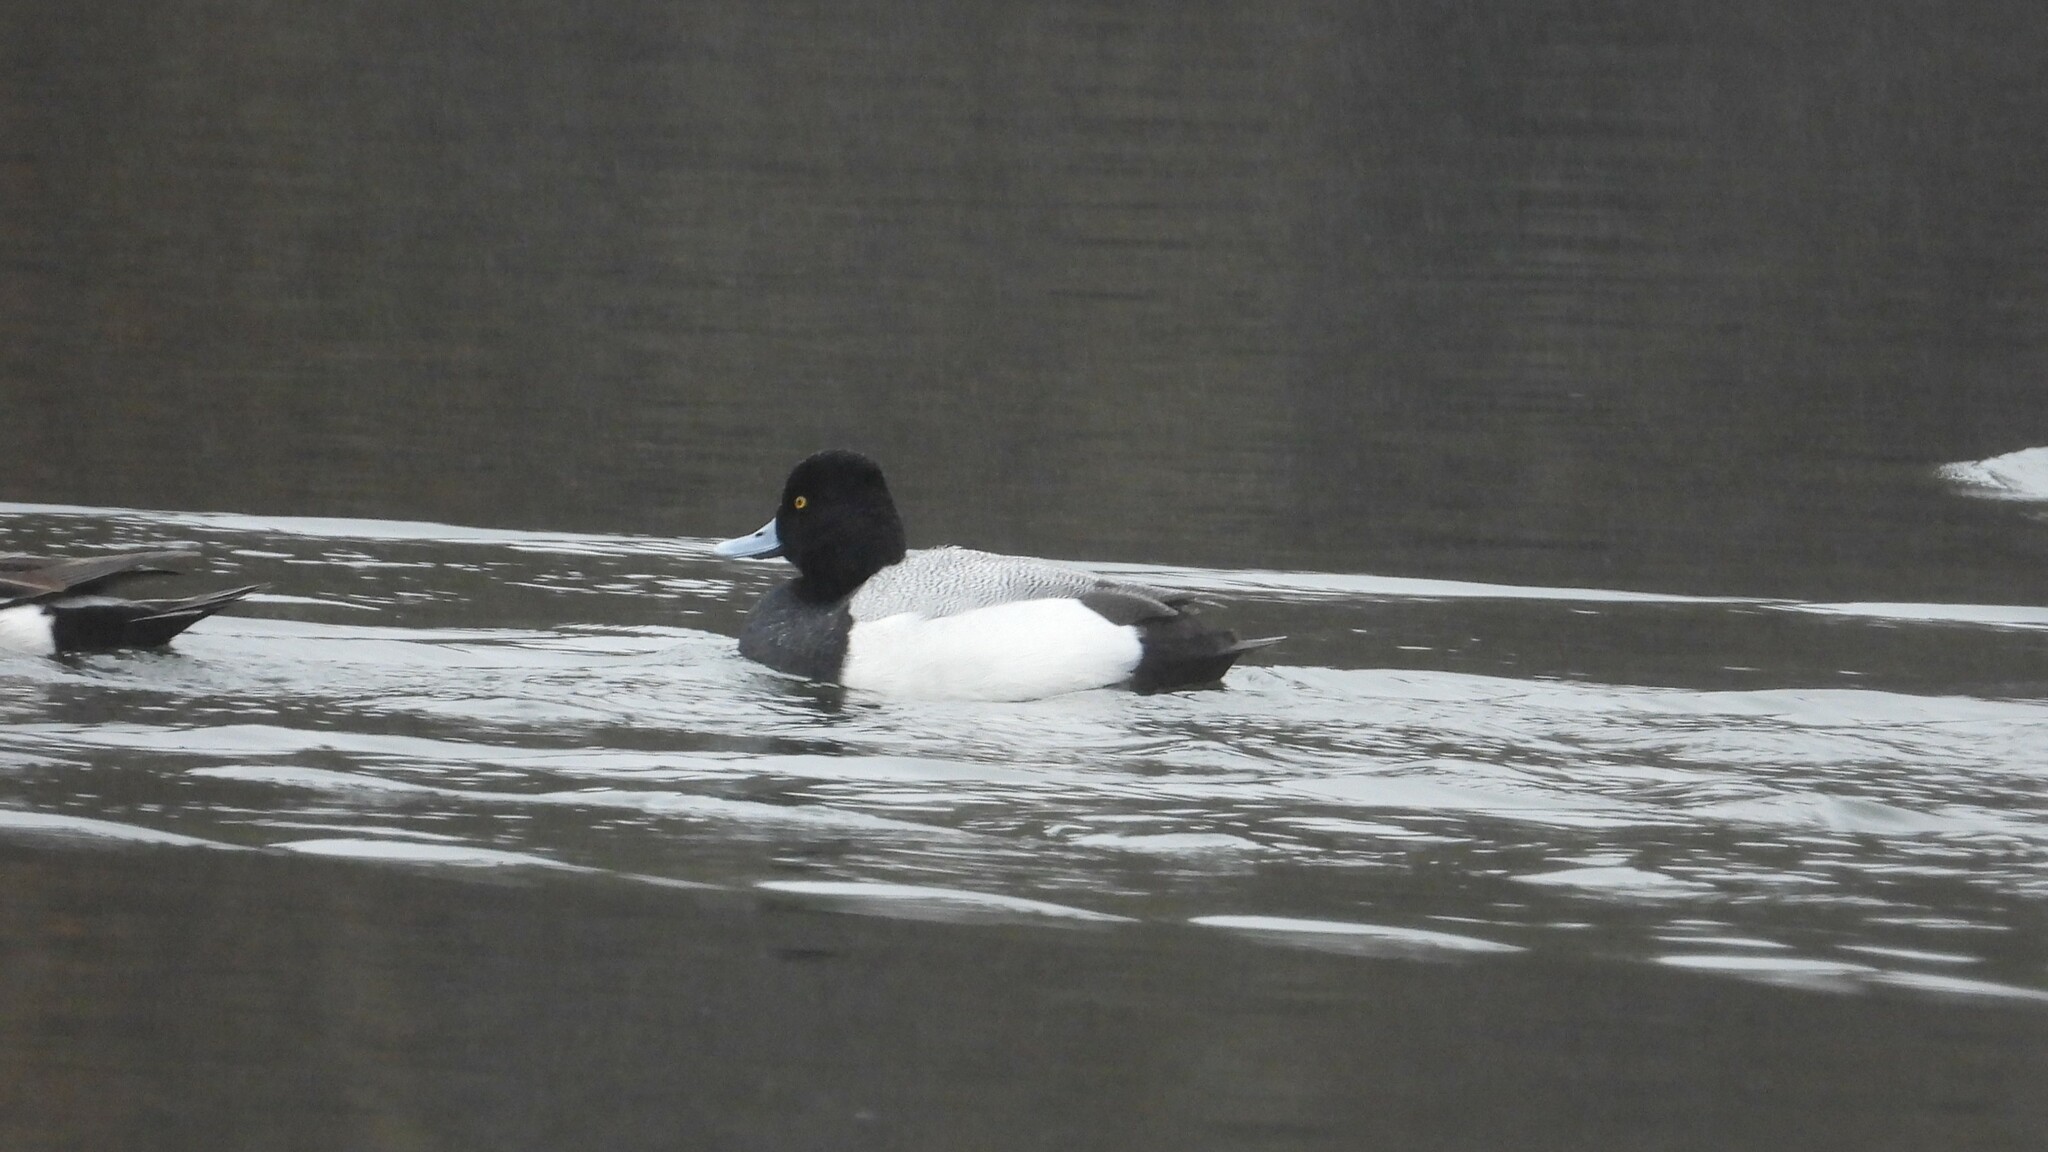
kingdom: Animalia
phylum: Chordata
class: Aves
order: Anseriformes
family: Anatidae
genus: Aythya
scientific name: Aythya affinis
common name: Lesser scaup
